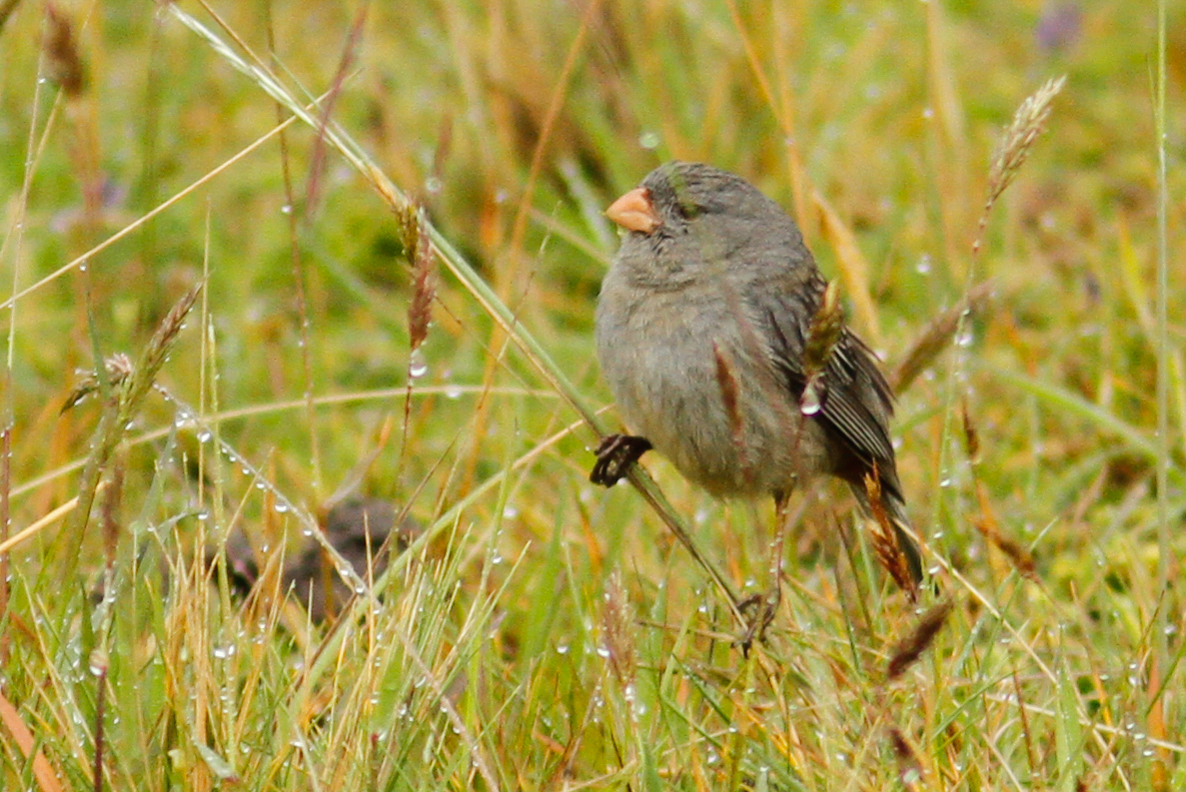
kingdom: Animalia
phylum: Chordata
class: Aves
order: Passeriformes
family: Thraupidae
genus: Catamenia
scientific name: Catamenia inornata
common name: Plain-colored seedeater
